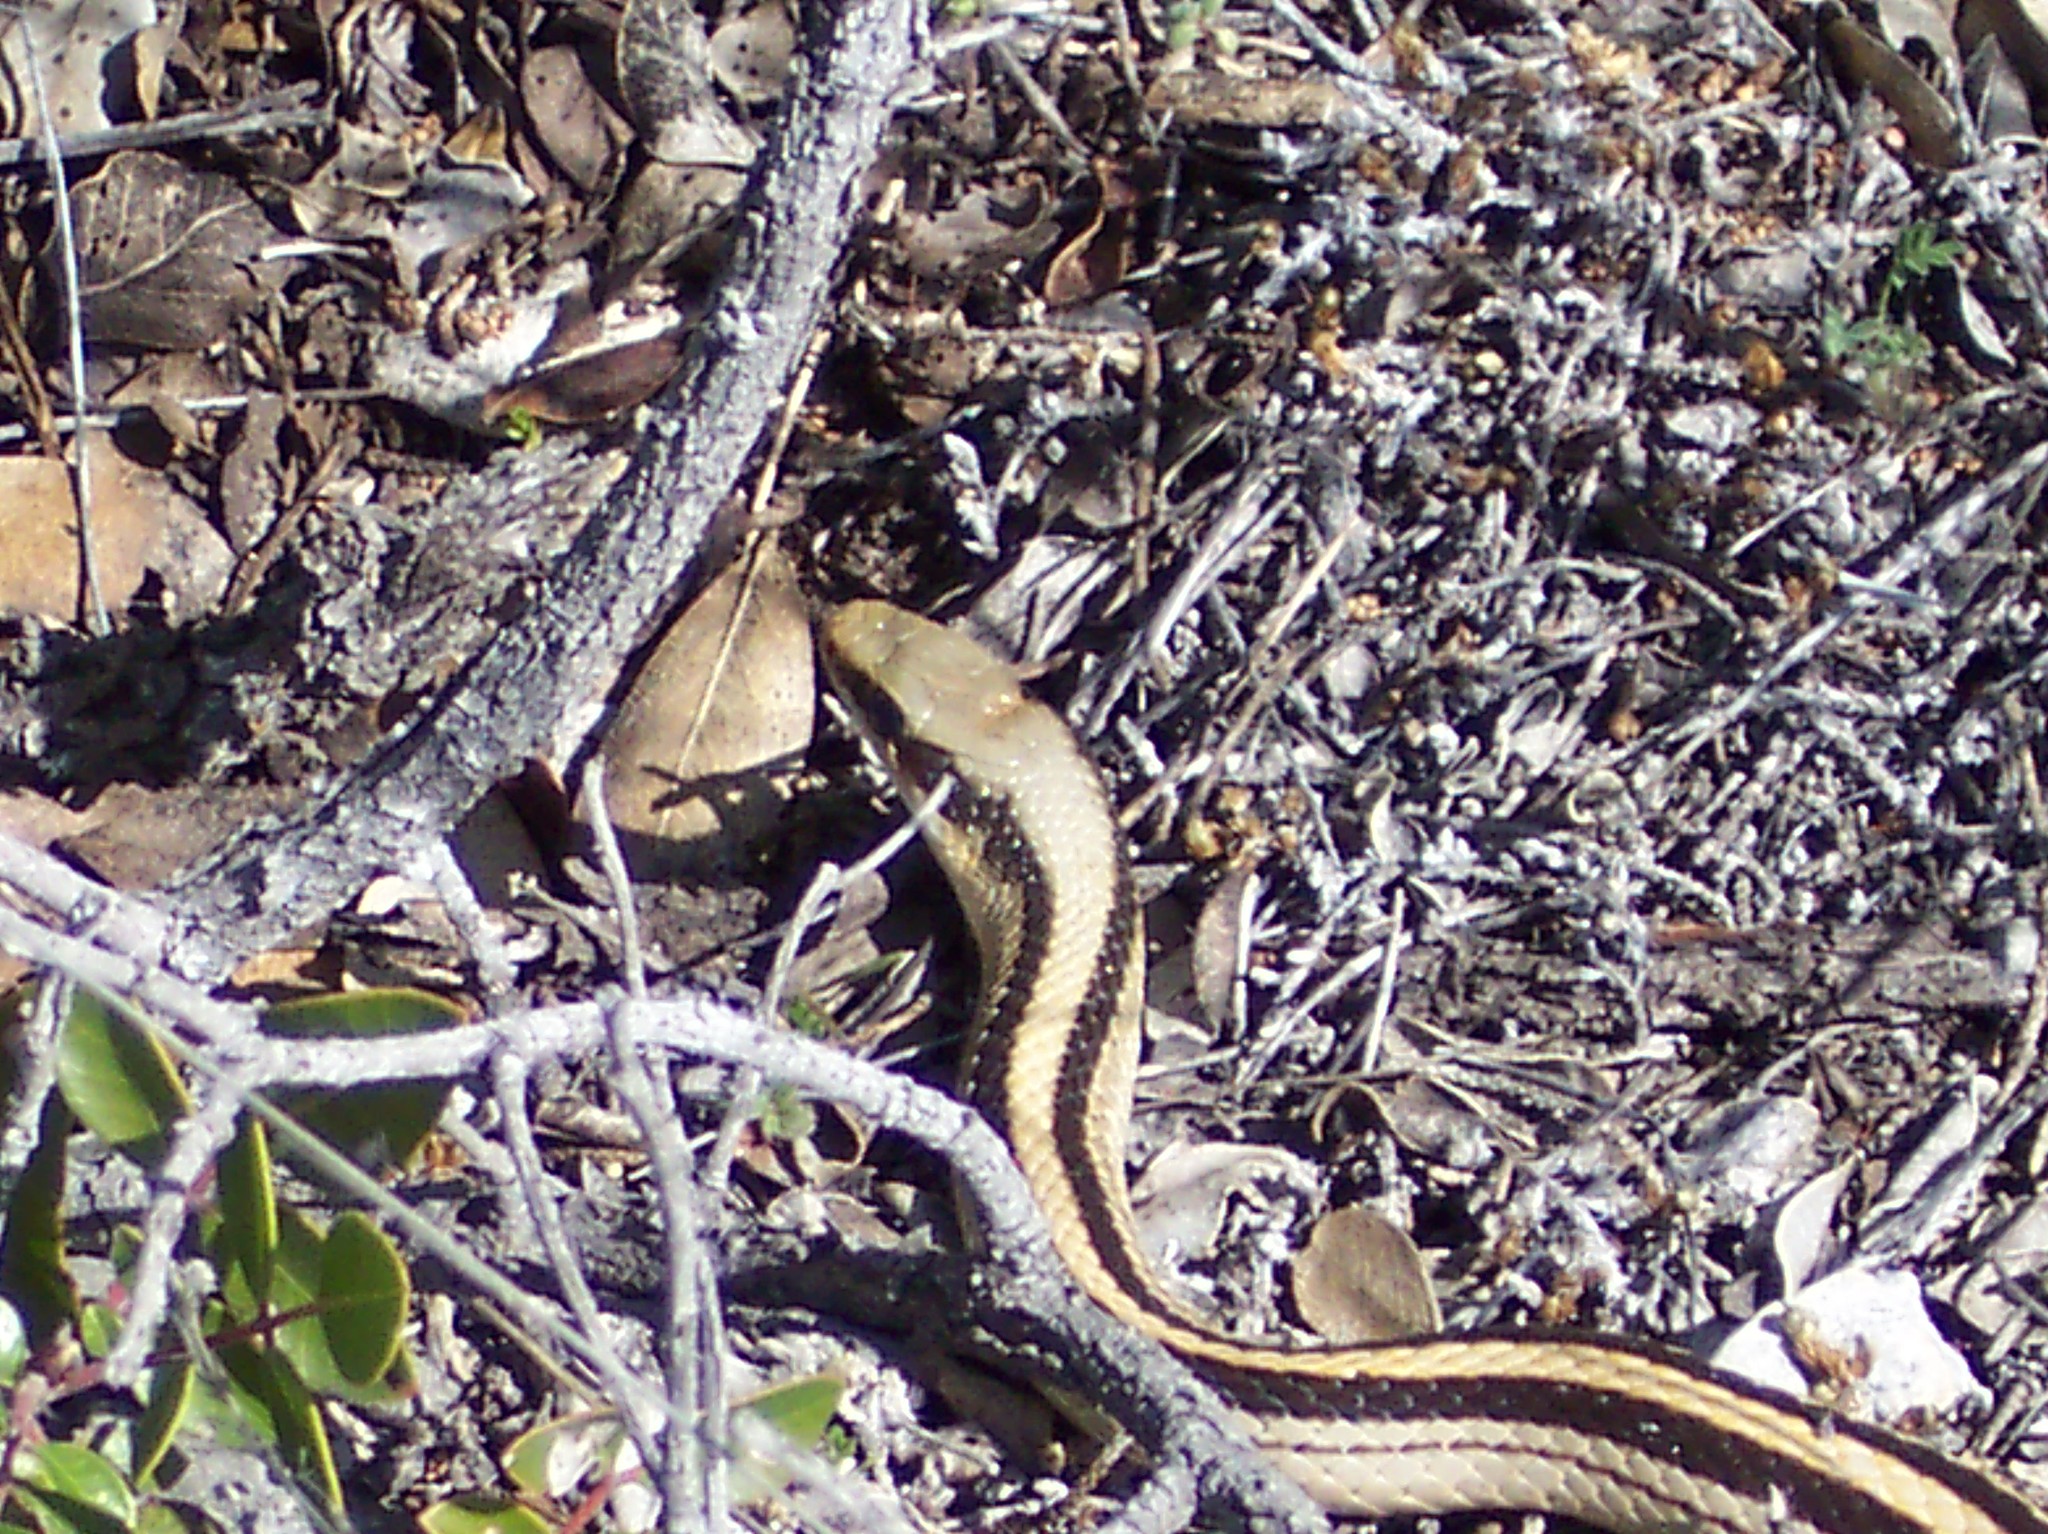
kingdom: Animalia
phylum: Chordata
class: Squamata
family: Colubridae
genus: Salvadora
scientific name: Salvadora lineata
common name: Texas patchnose snake
